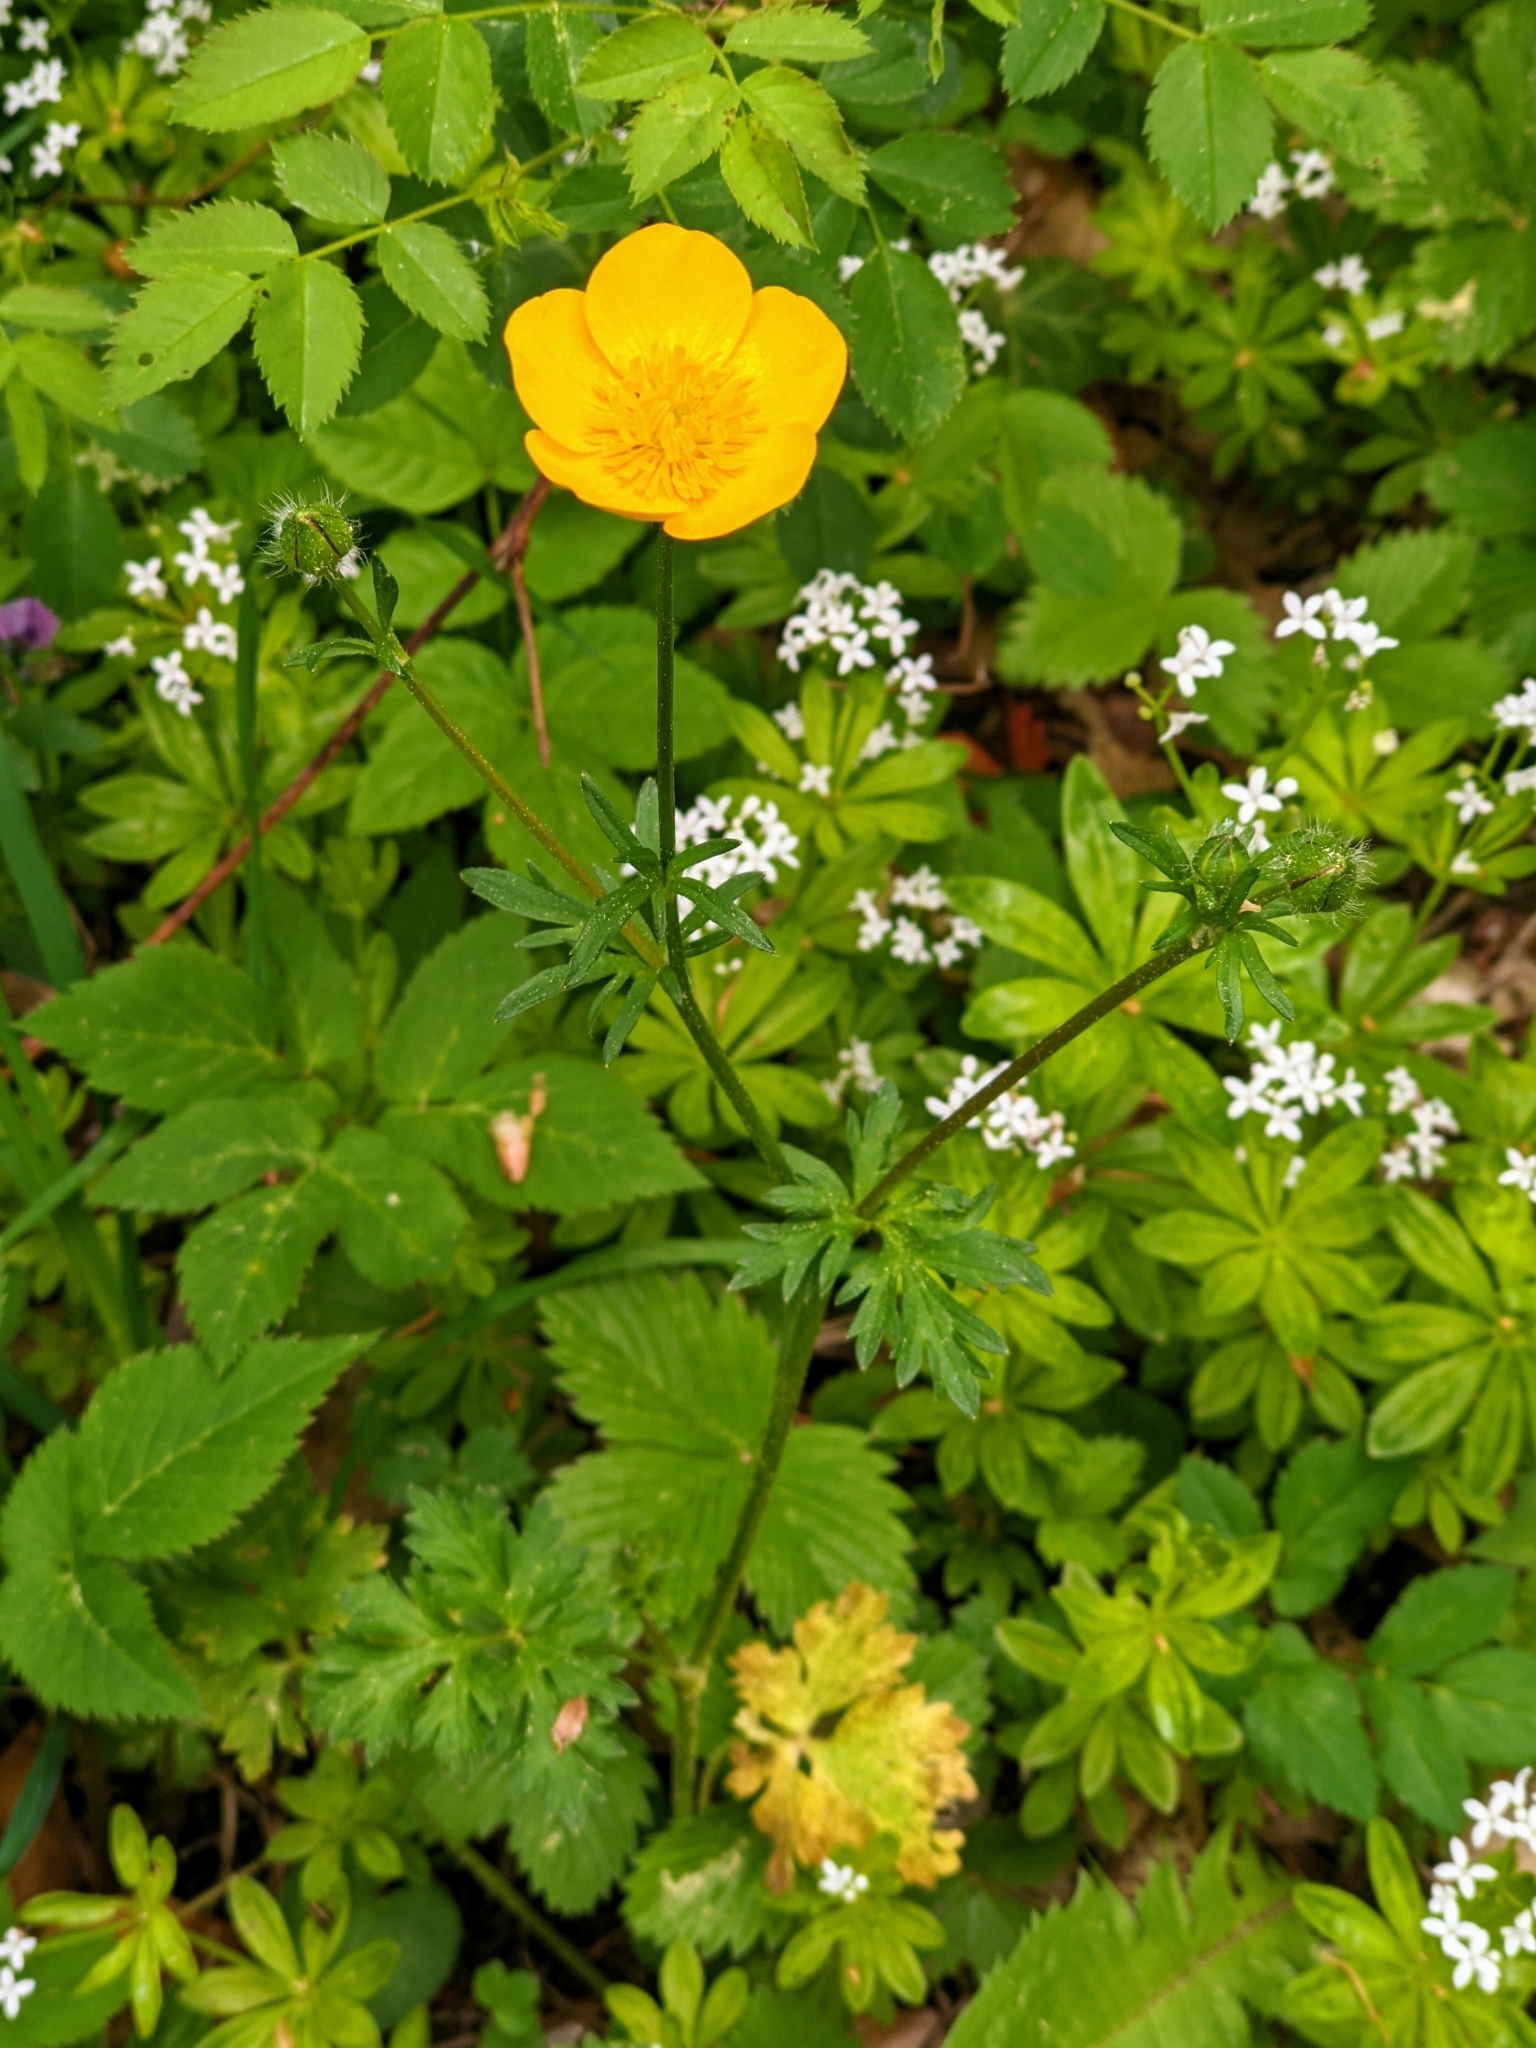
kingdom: Plantae
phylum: Tracheophyta
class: Magnoliopsida
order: Ranunculales
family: Ranunculaceae
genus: Ranunculus
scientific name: Ranunculus acris
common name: Meadow buttercup
